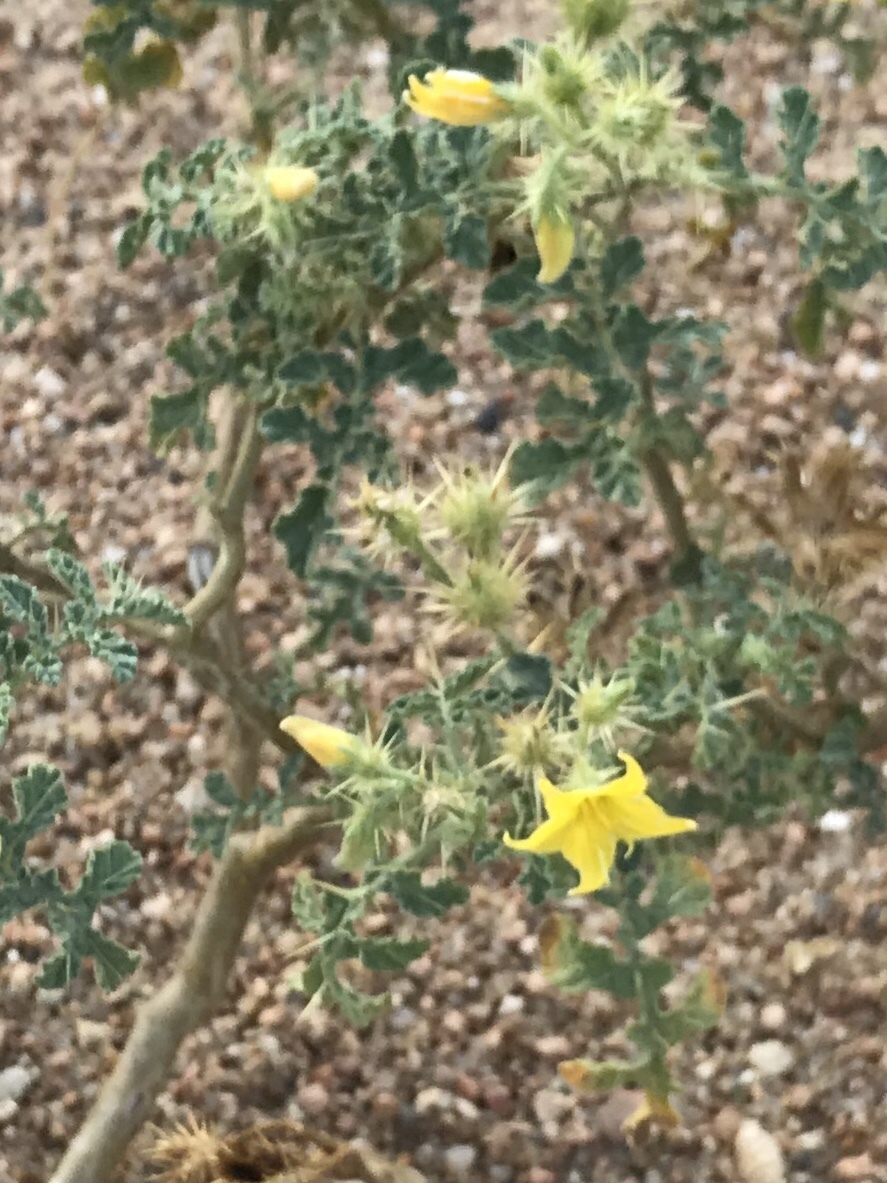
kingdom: Plantae
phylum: Tracheophyta
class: Magnoliopsida
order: Solanales
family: Solanaceae
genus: Solanum
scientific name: Solanum angustifolium
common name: Buffalobur nightshade
